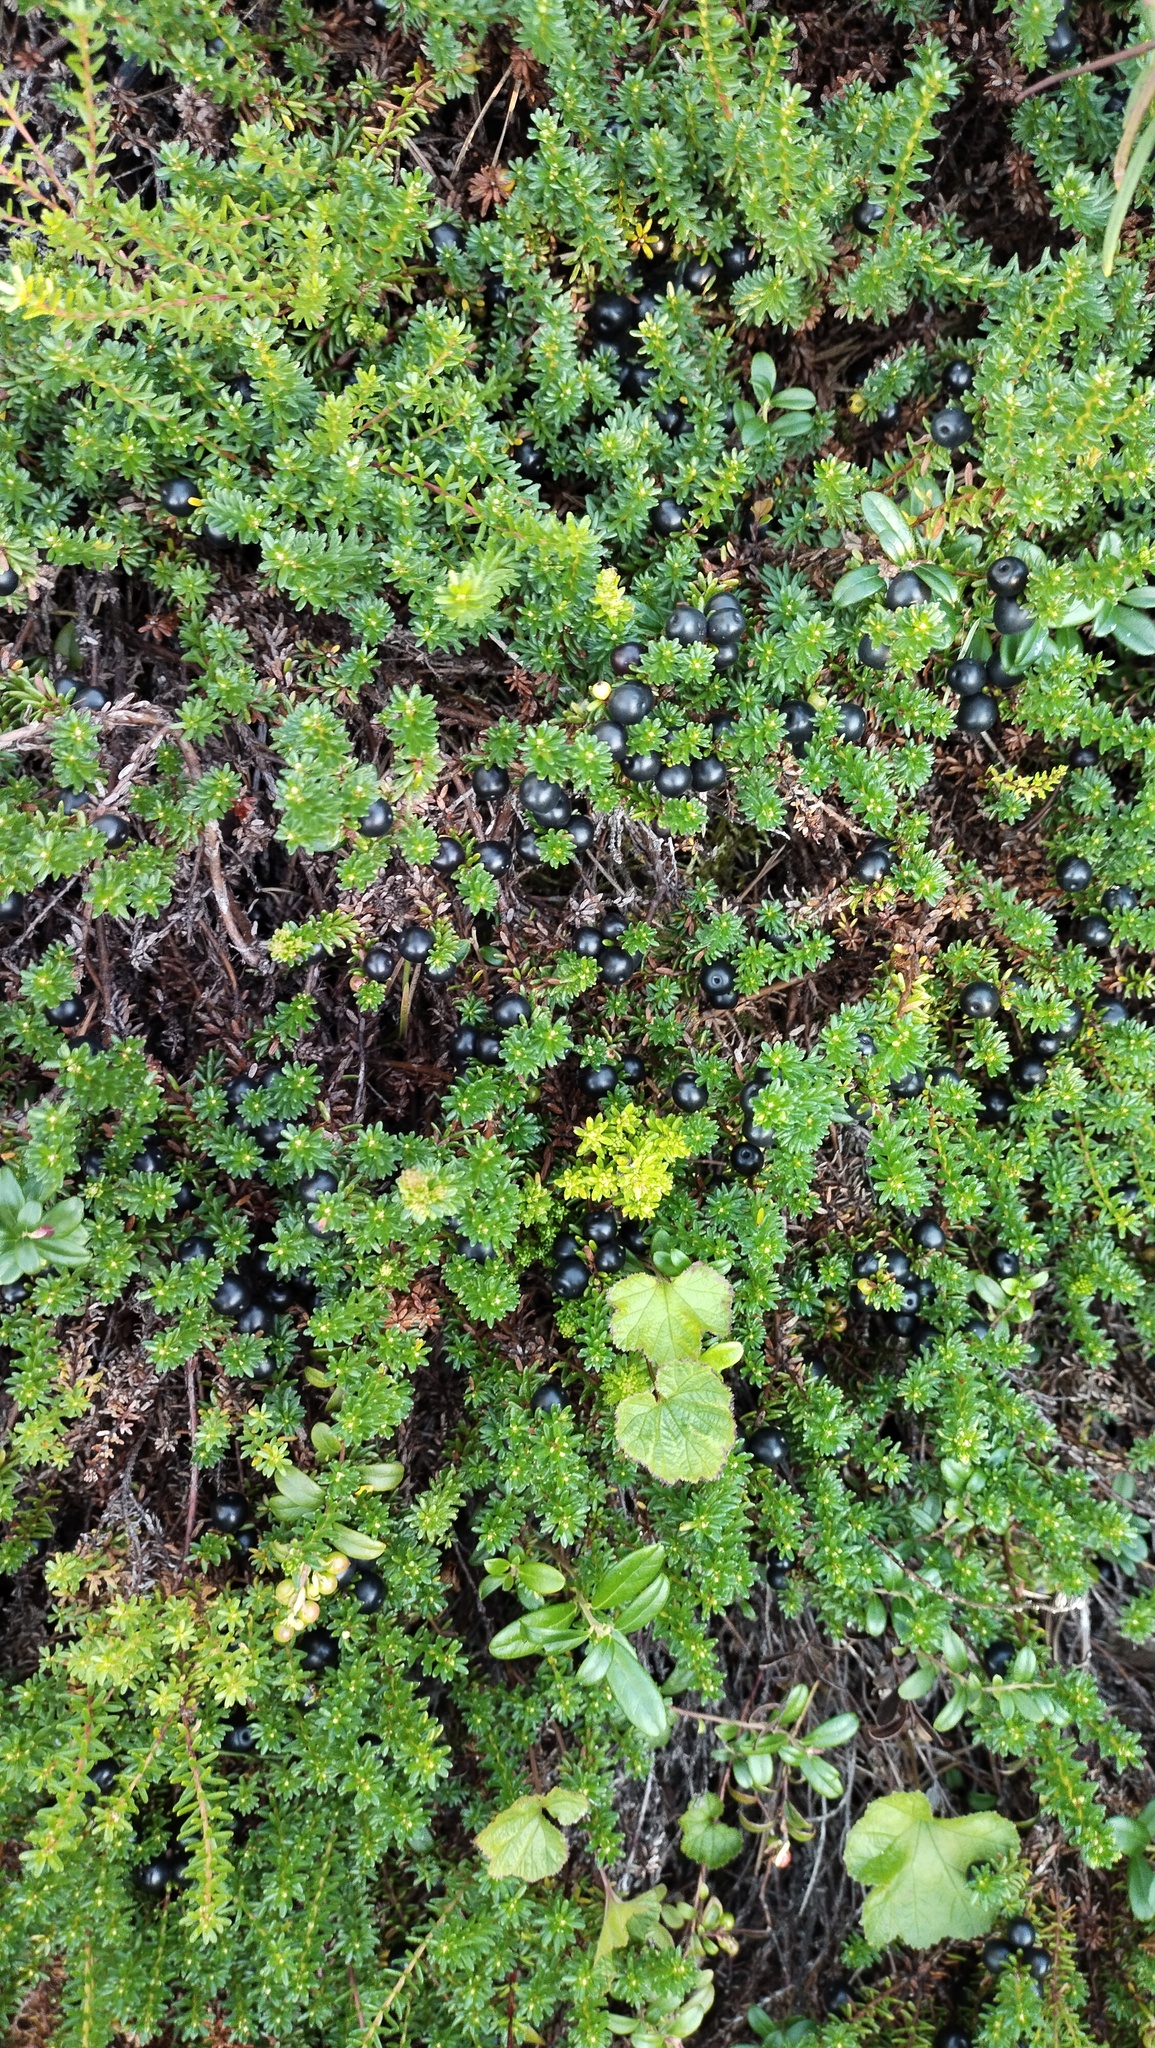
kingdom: Plantae
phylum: Tracheophyta
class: Magnoliopsida
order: Ericales
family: Ericaceae
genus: Empetrum
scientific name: Empetrum nigrum
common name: Black crowberry
